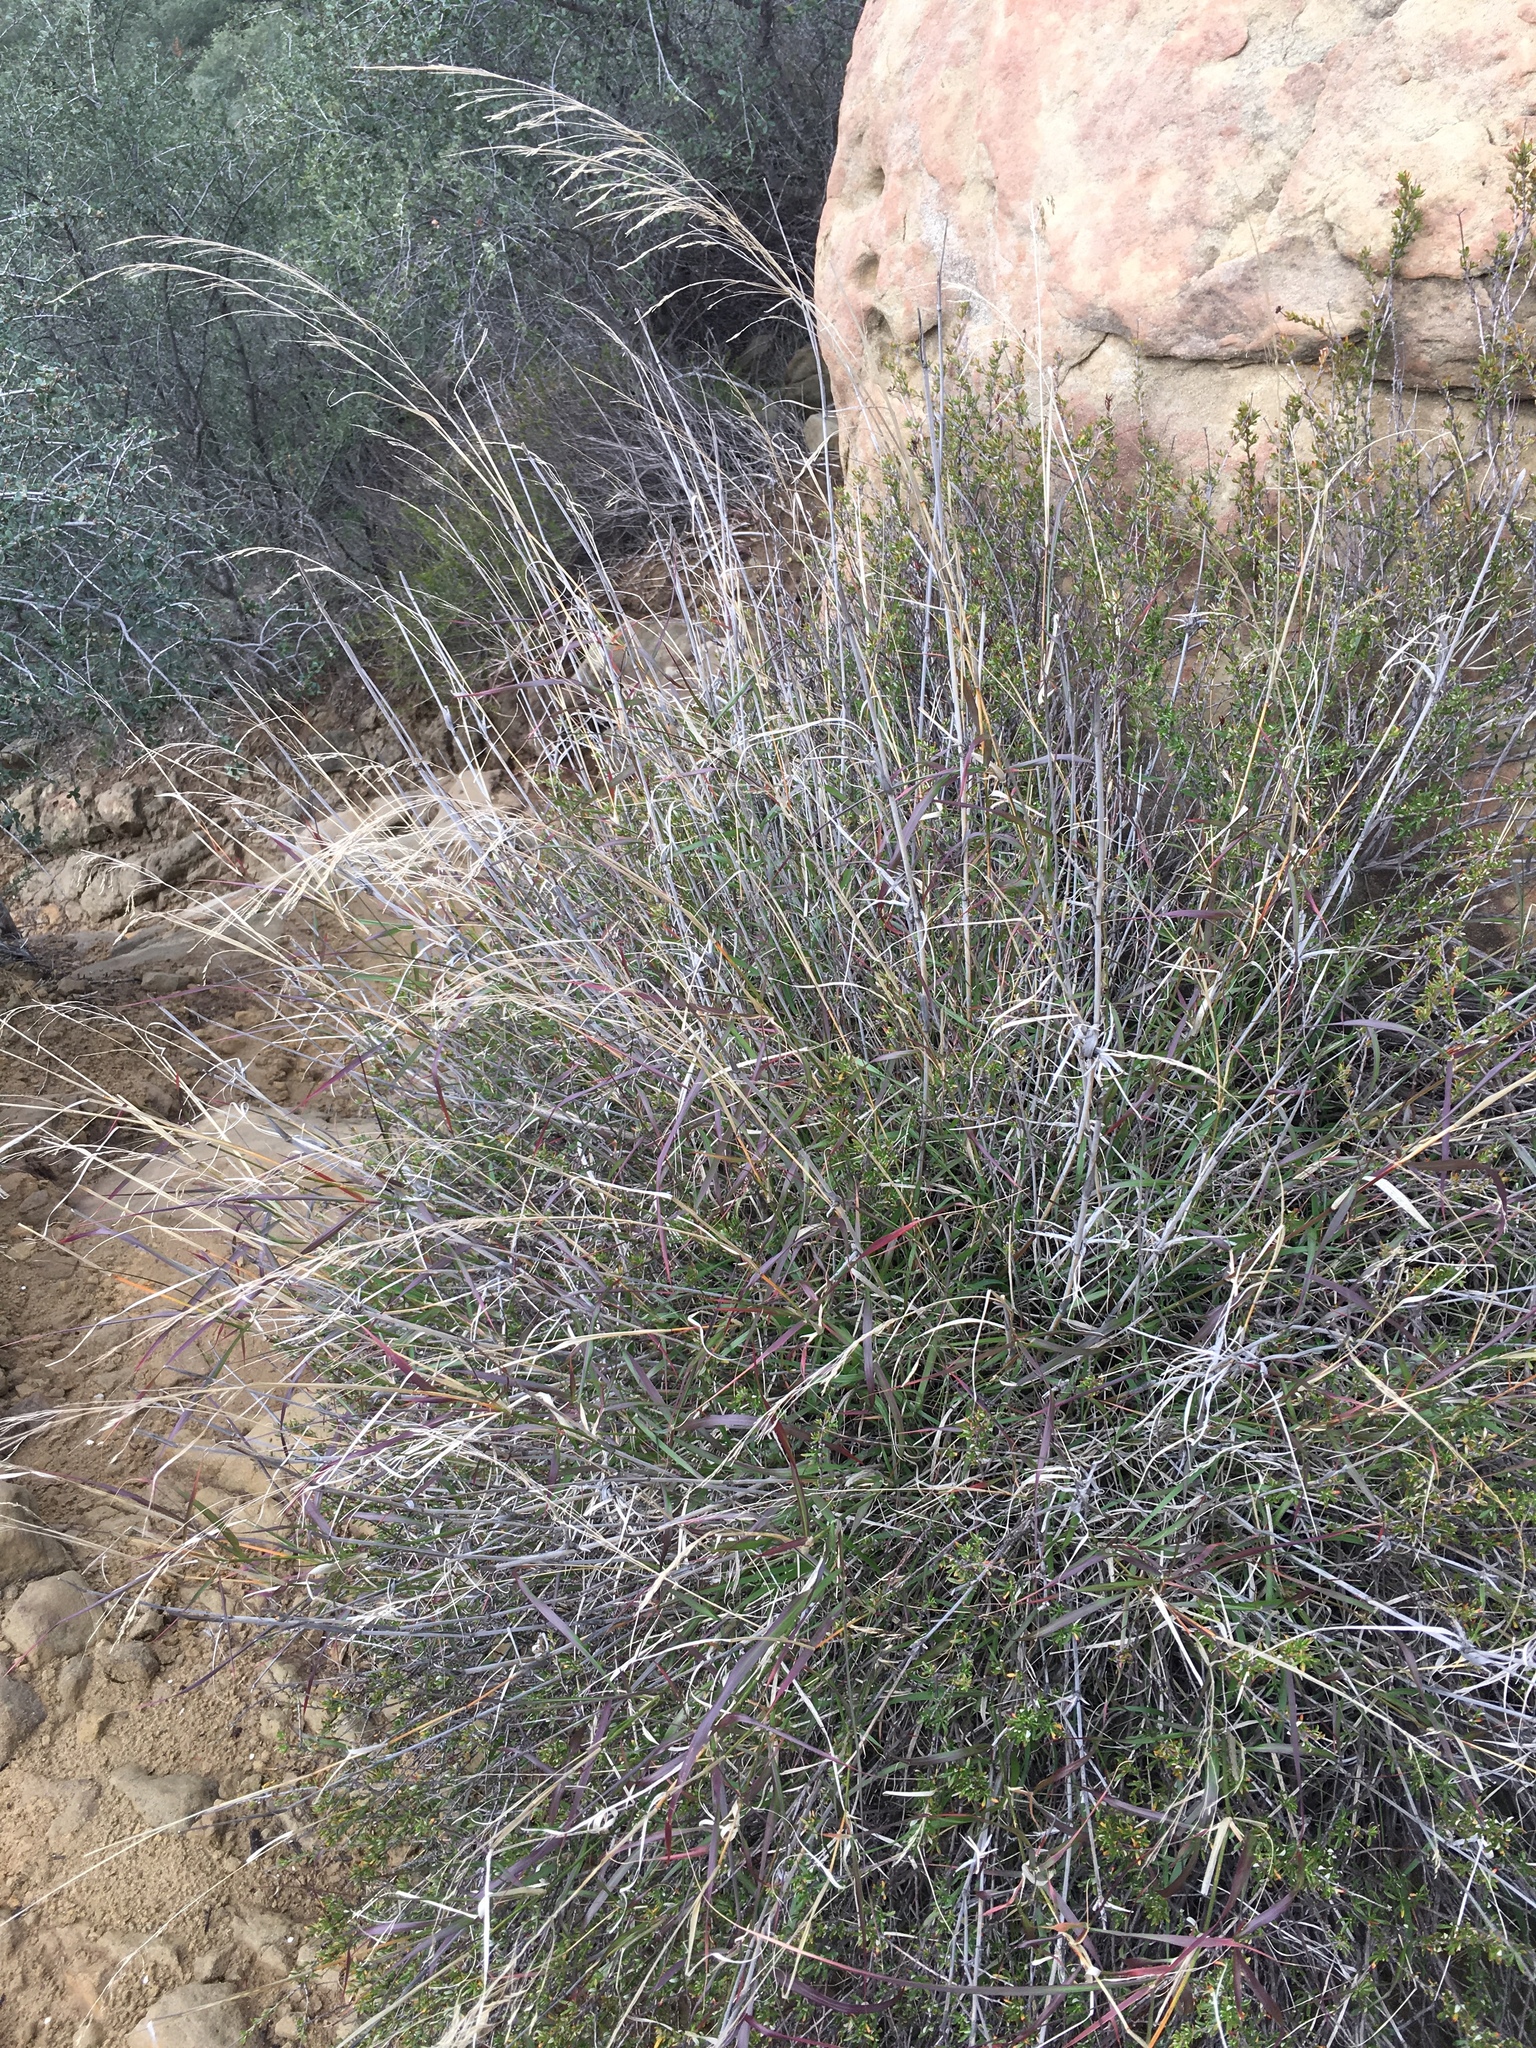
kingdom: Plantae
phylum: Tracheophyta
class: Liliopsida
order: Poales
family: Poaceae
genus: Oloptum
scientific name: Oloptum miliaceum
